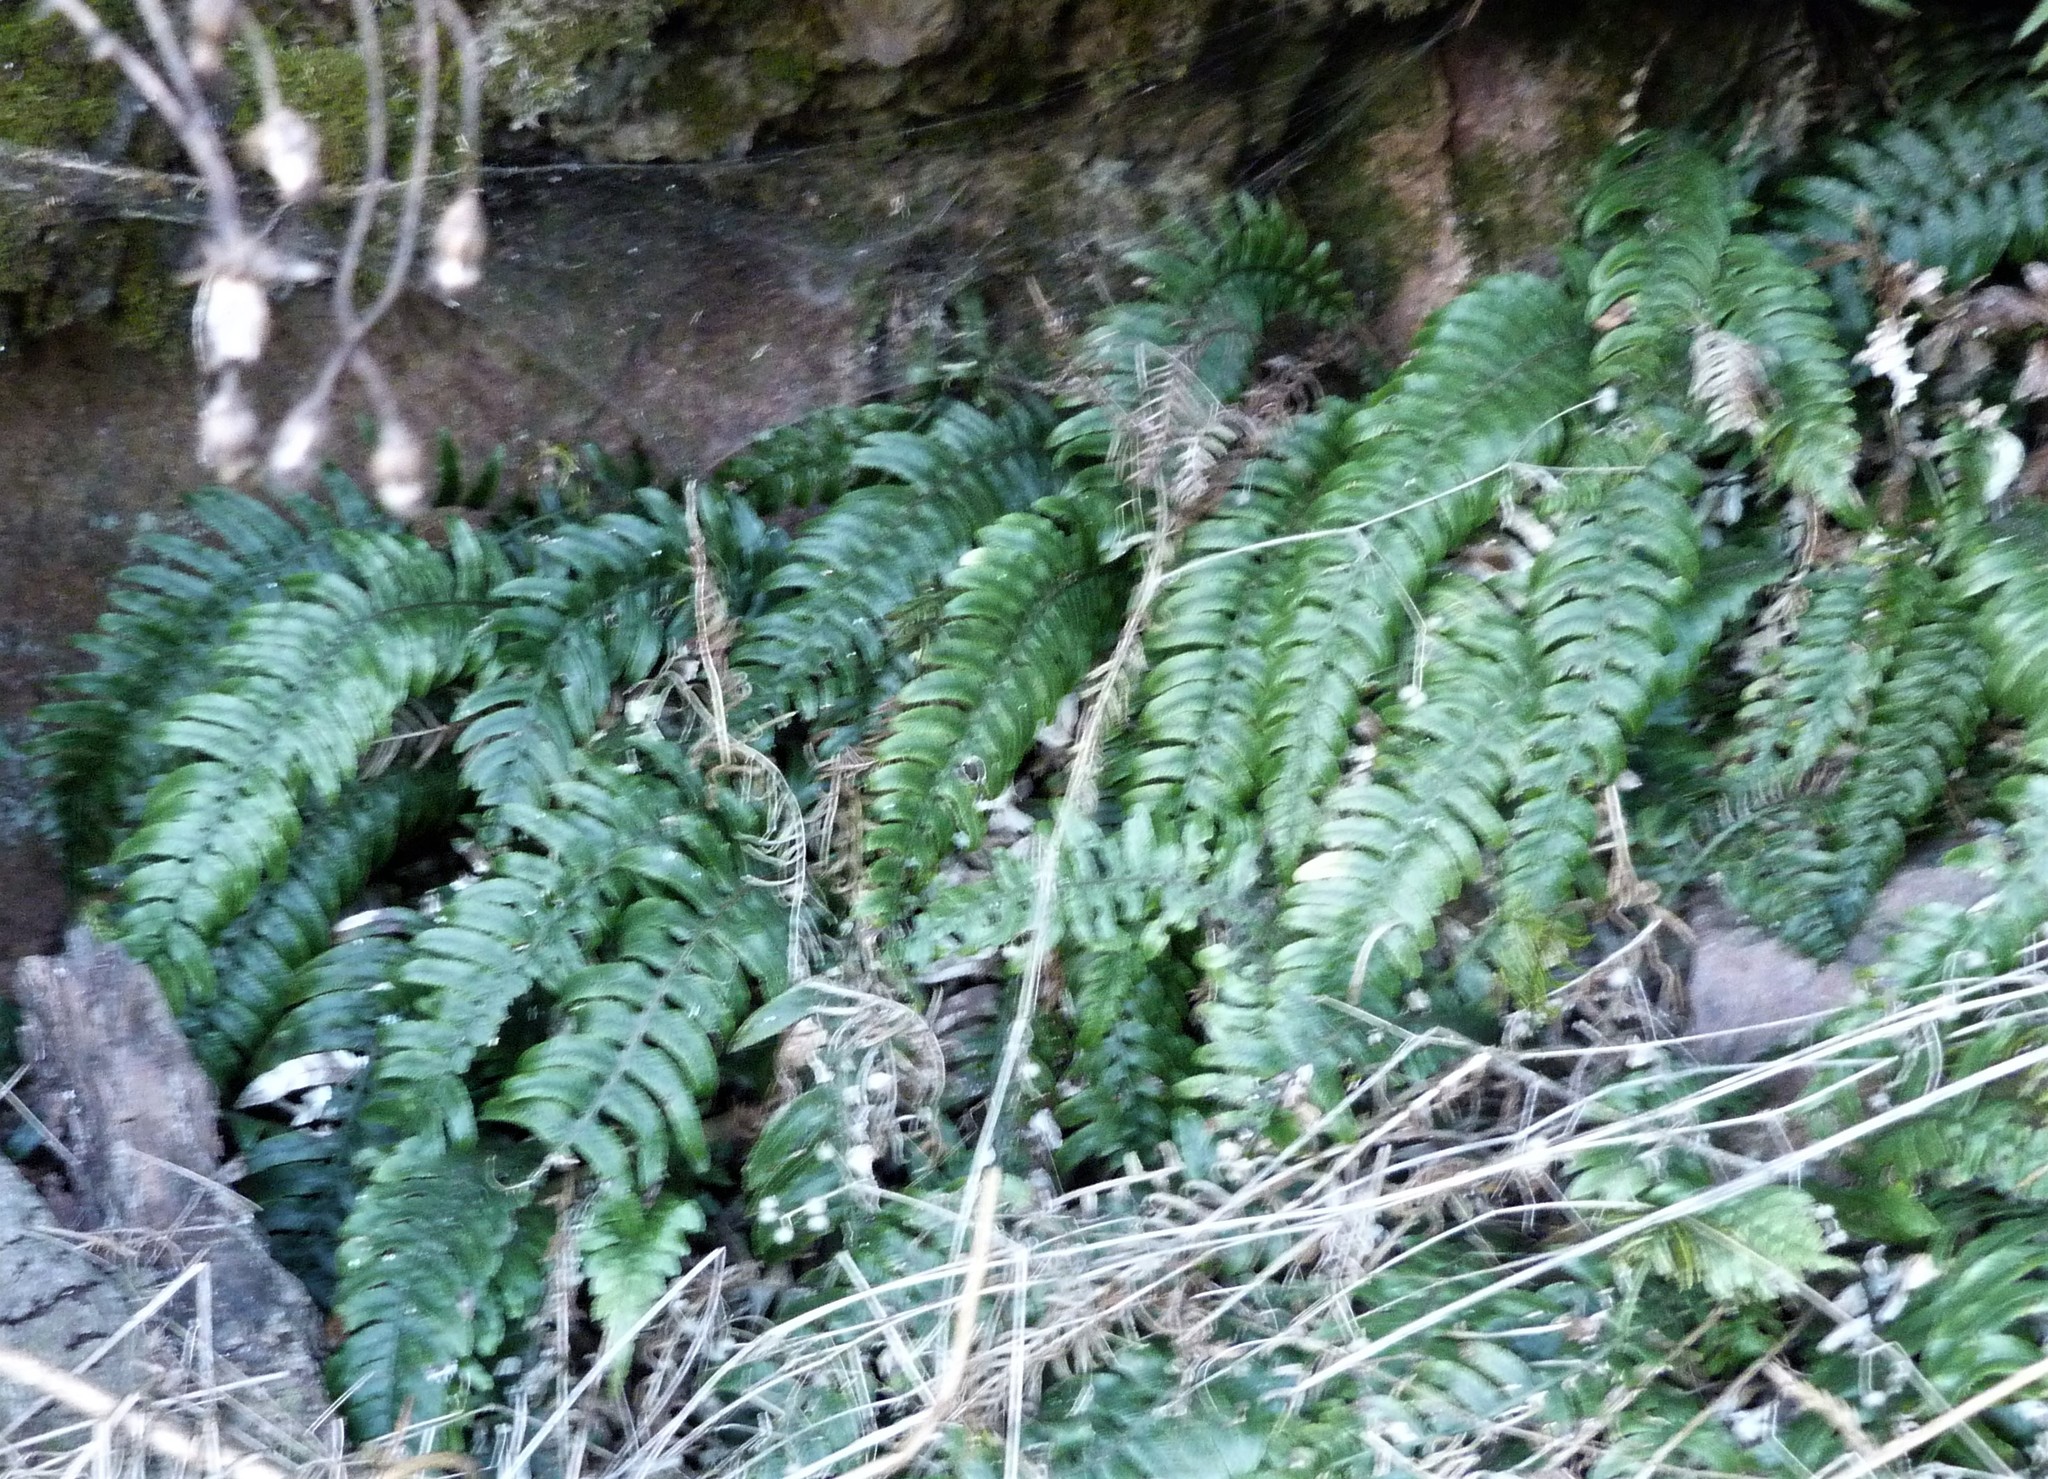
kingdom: Plantae
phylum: Tracheophyta
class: Polypodiopsida
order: Polypodiales
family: Blechnaceae
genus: Austroblechnum
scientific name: Austroblechnum lanceolatum
